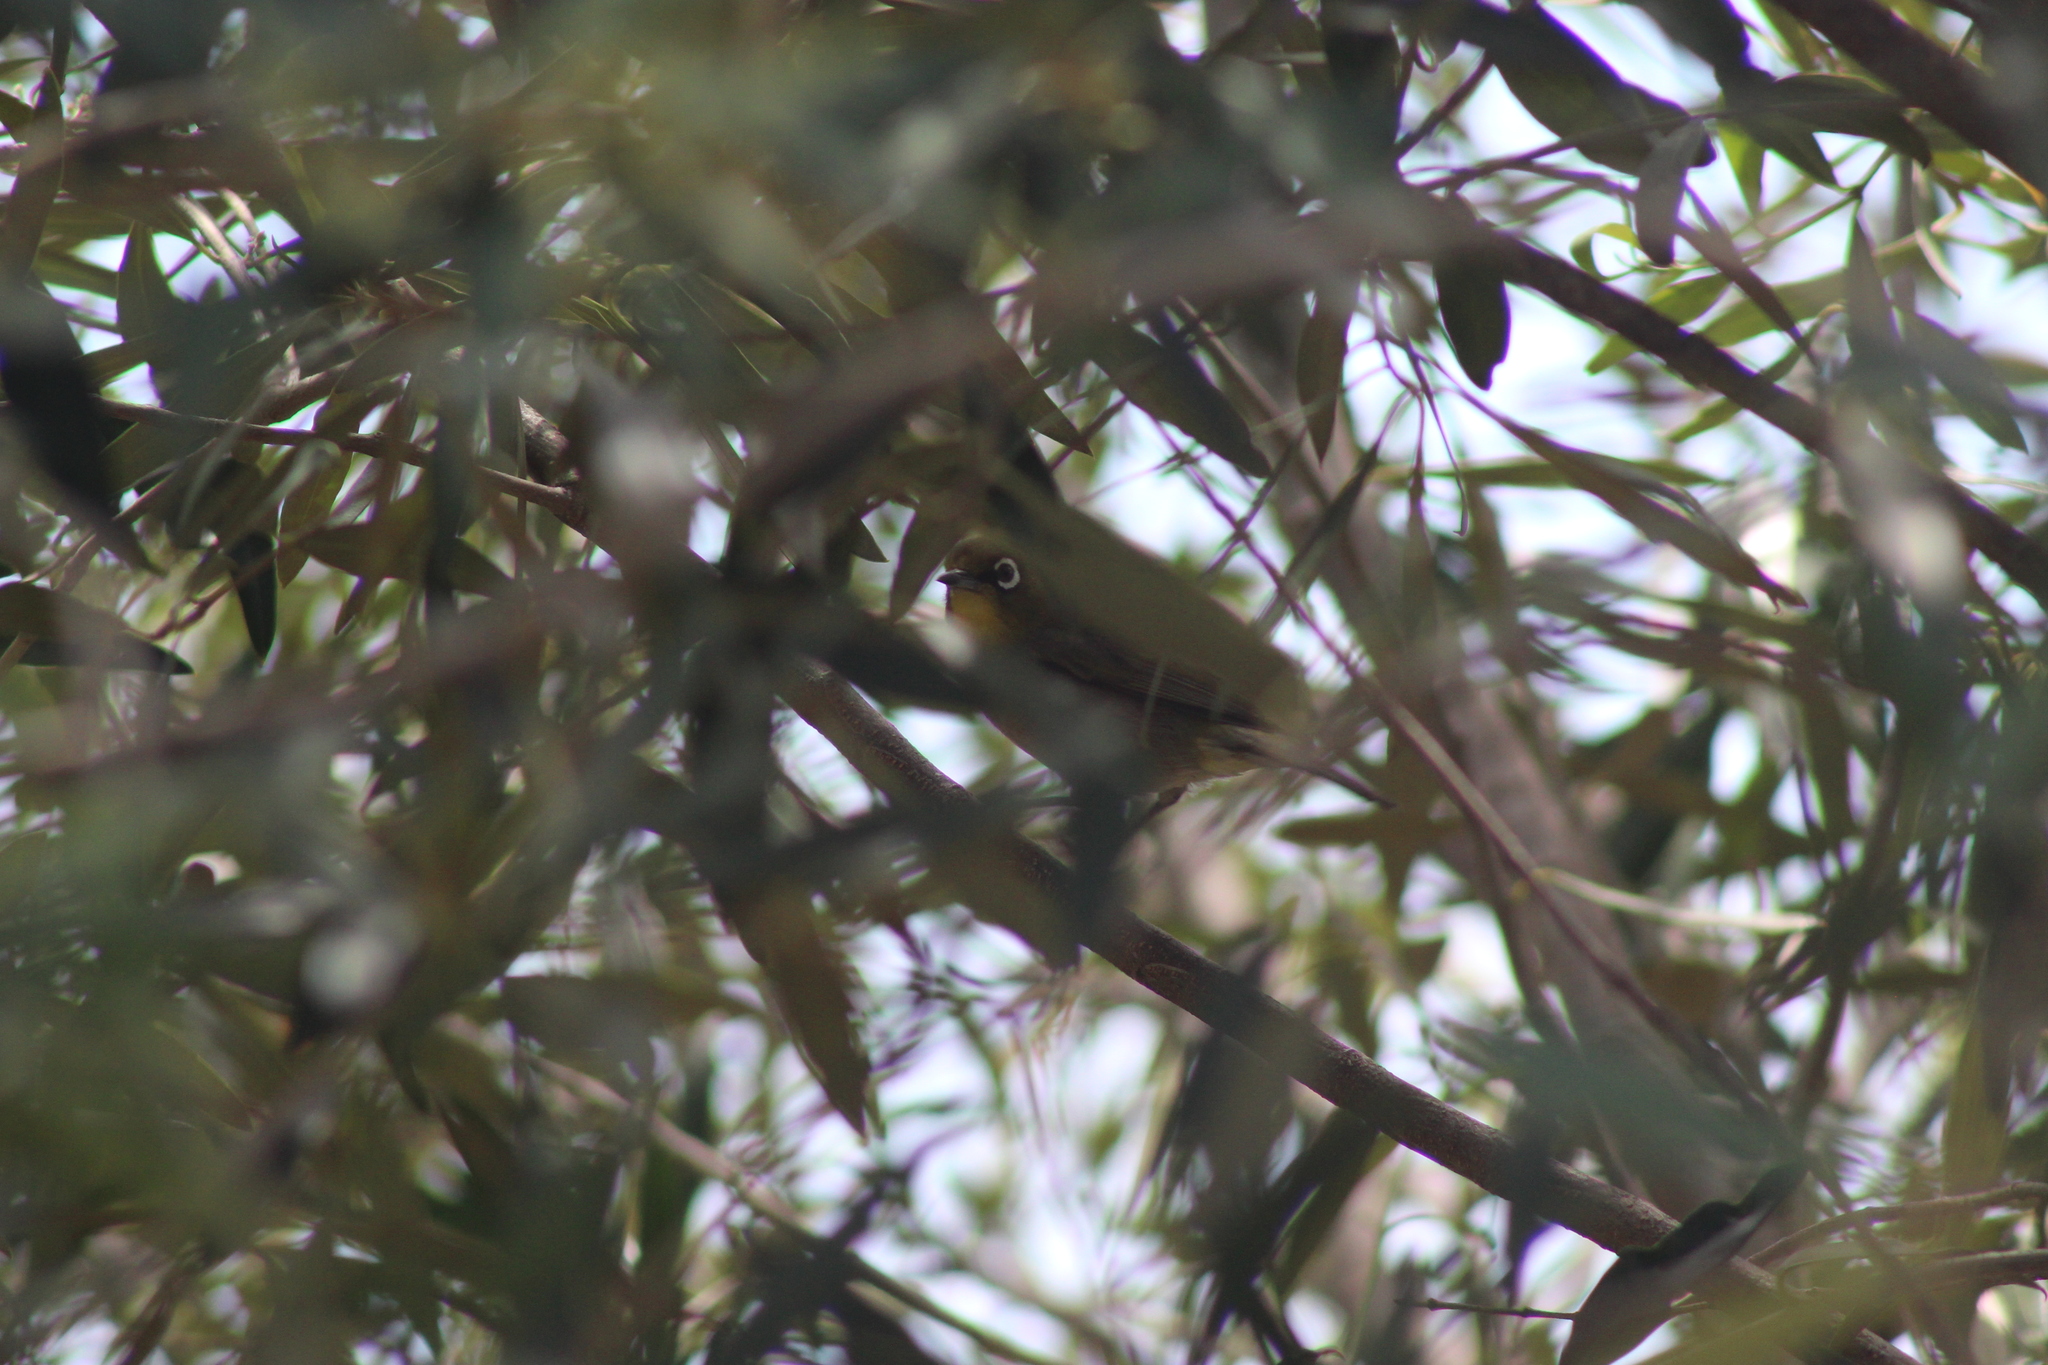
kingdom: Animalia
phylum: Chordata
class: Aves
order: Passeriformes
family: Zosteropidae
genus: Zosterops
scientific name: Zosterops virens
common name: Cape white-eye
